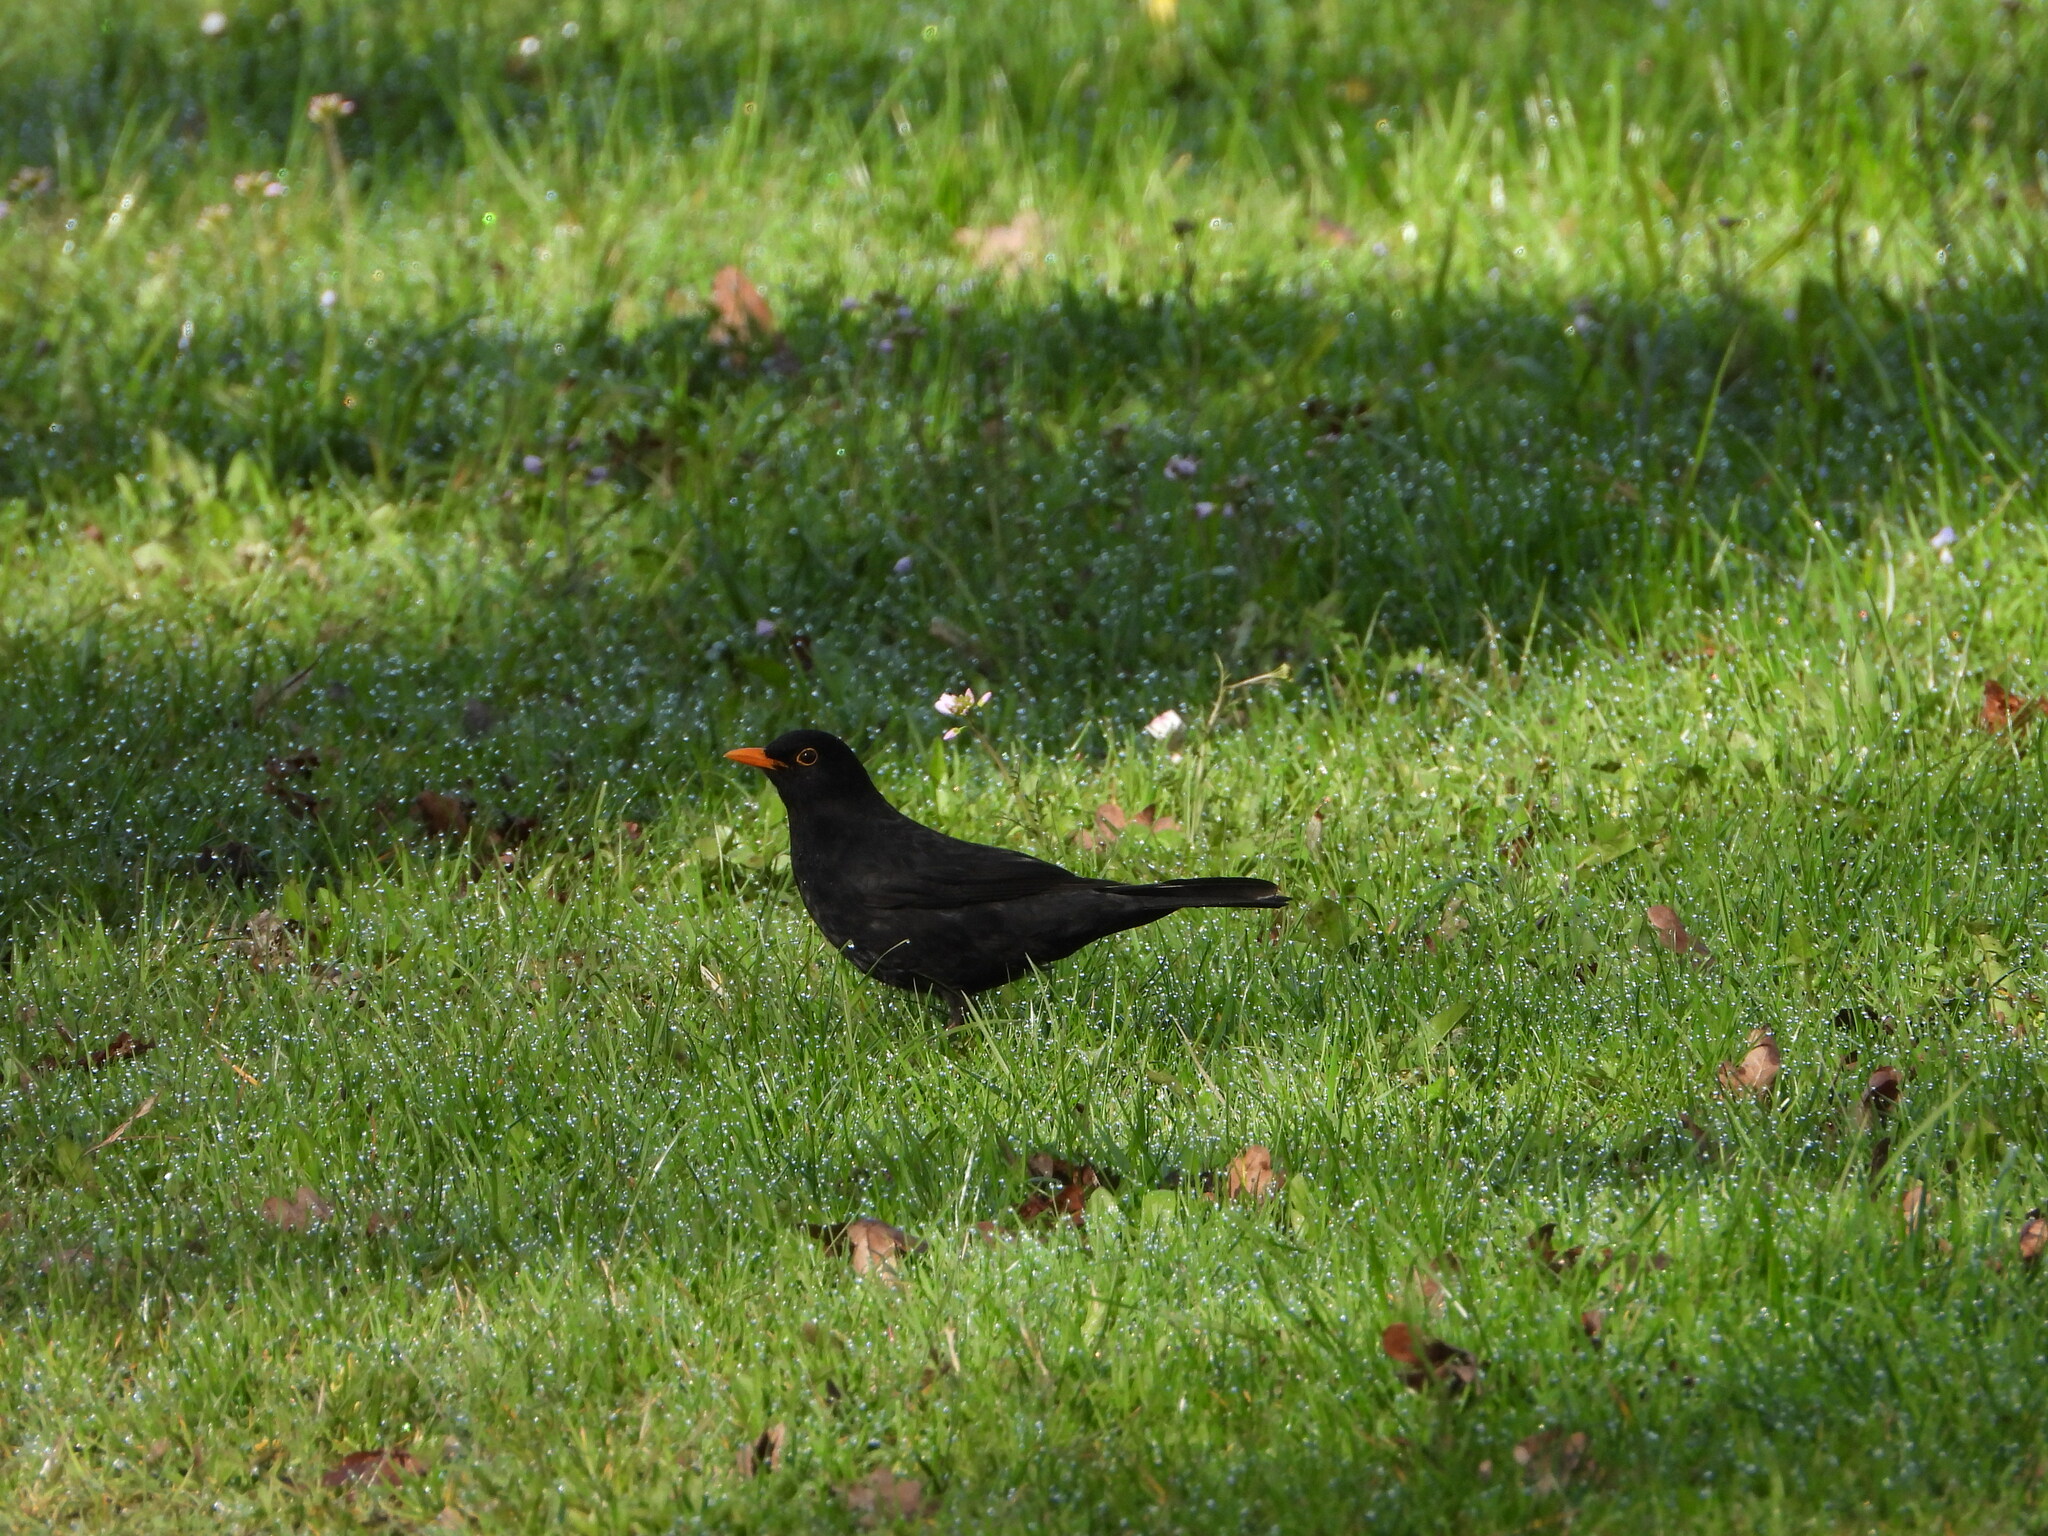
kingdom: Animalia
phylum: Chordata
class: Aves
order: Passeriformes
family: Turdidae
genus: Turdus
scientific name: Turdus merula
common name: Common blackbird
